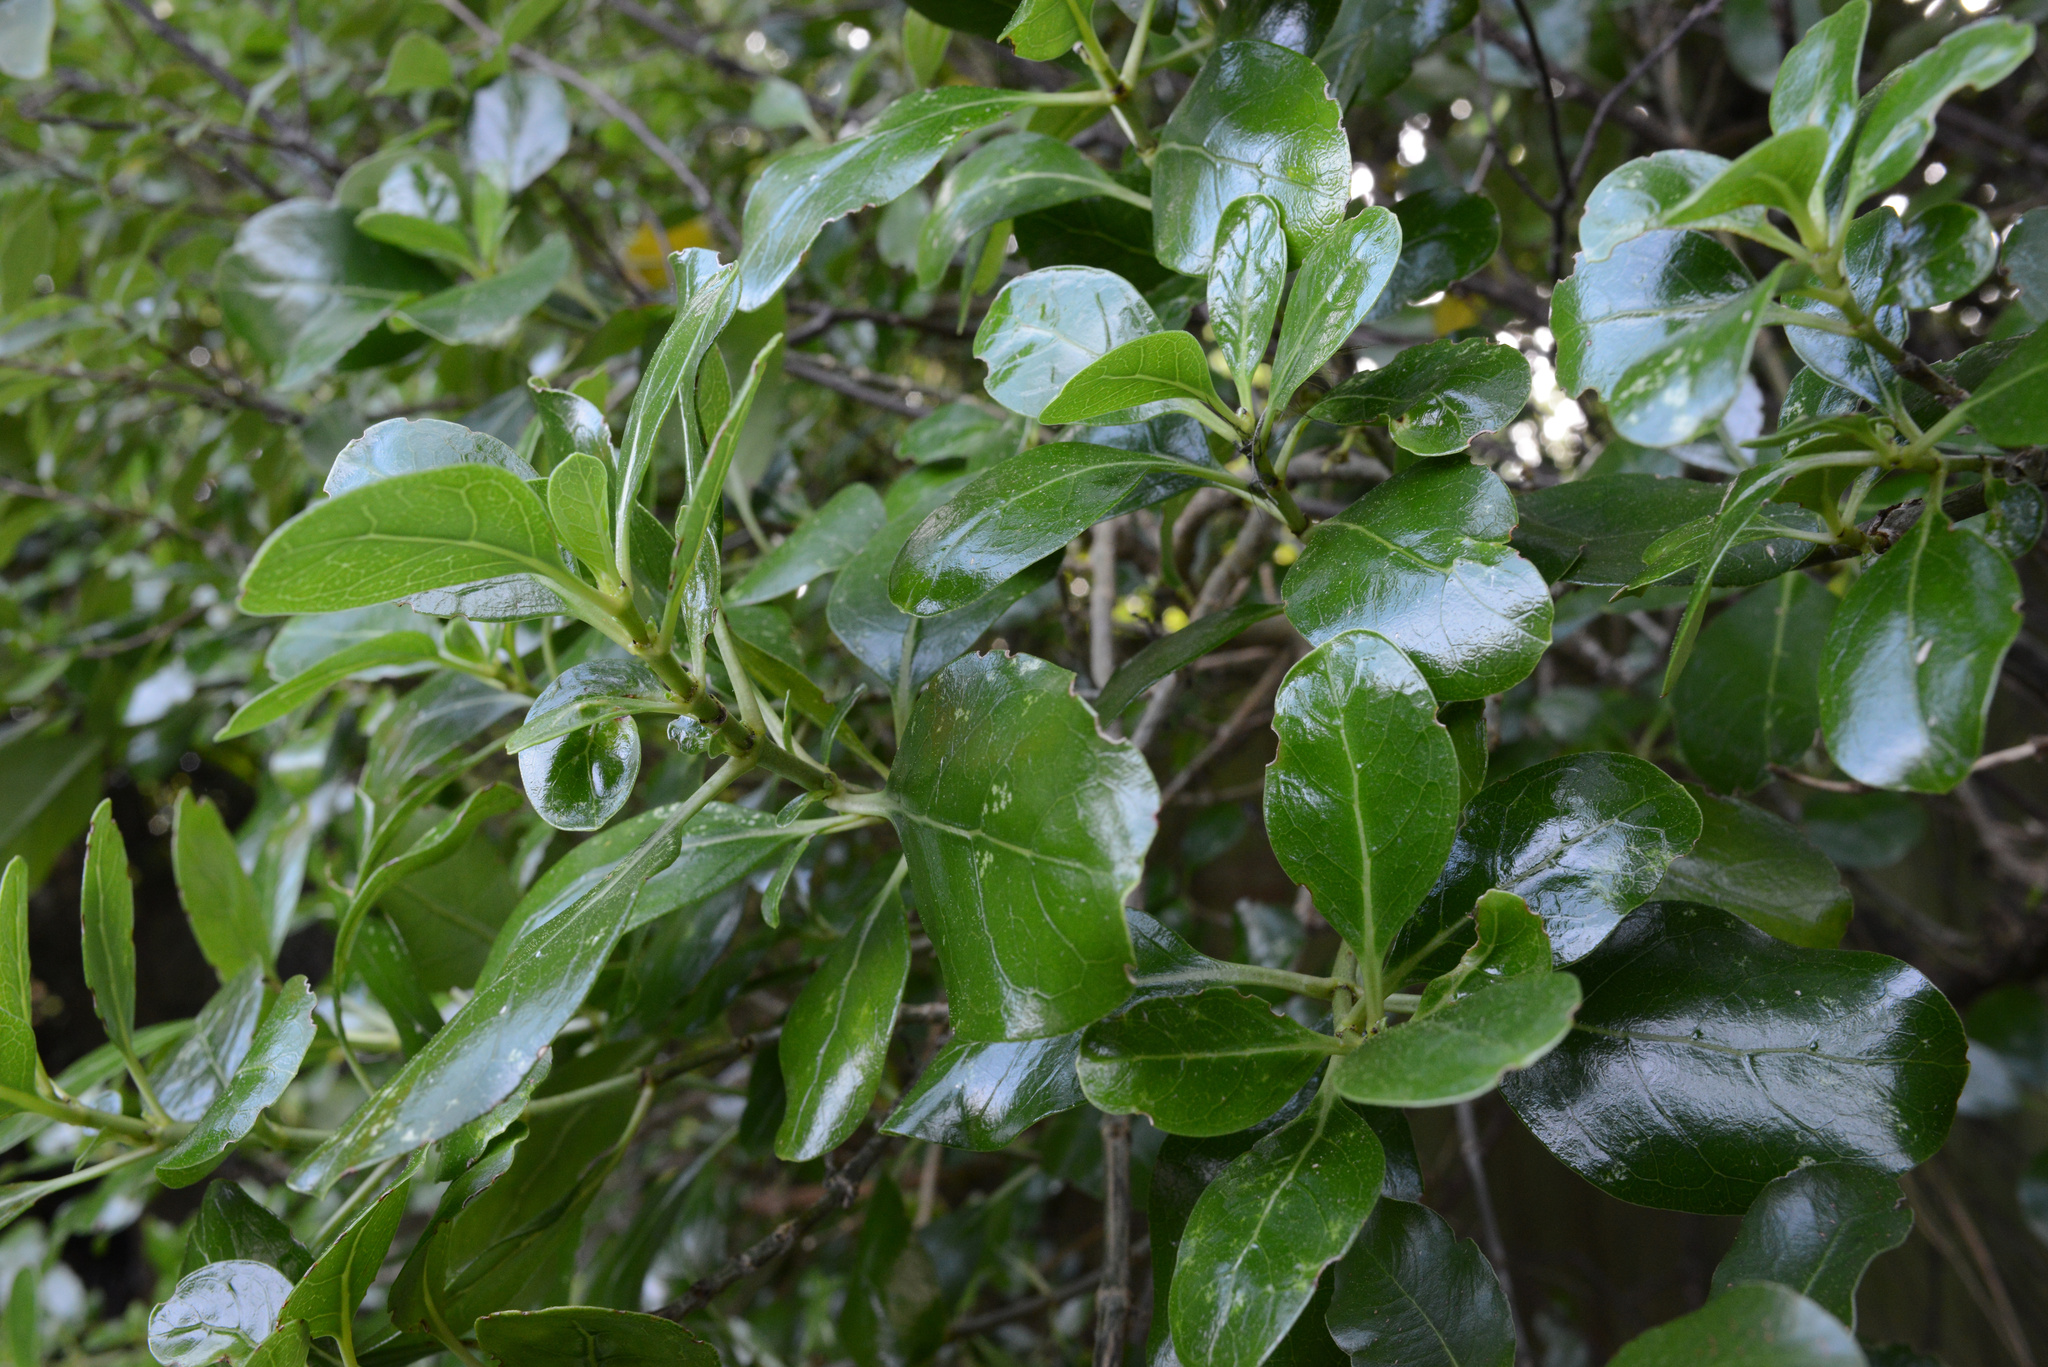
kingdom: Plantae
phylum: Tracheophyta
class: Magnoliopsida
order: Gentianales
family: Rubiaceae
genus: Coprosma
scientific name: Coprosma repens
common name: Tree bedstraw
